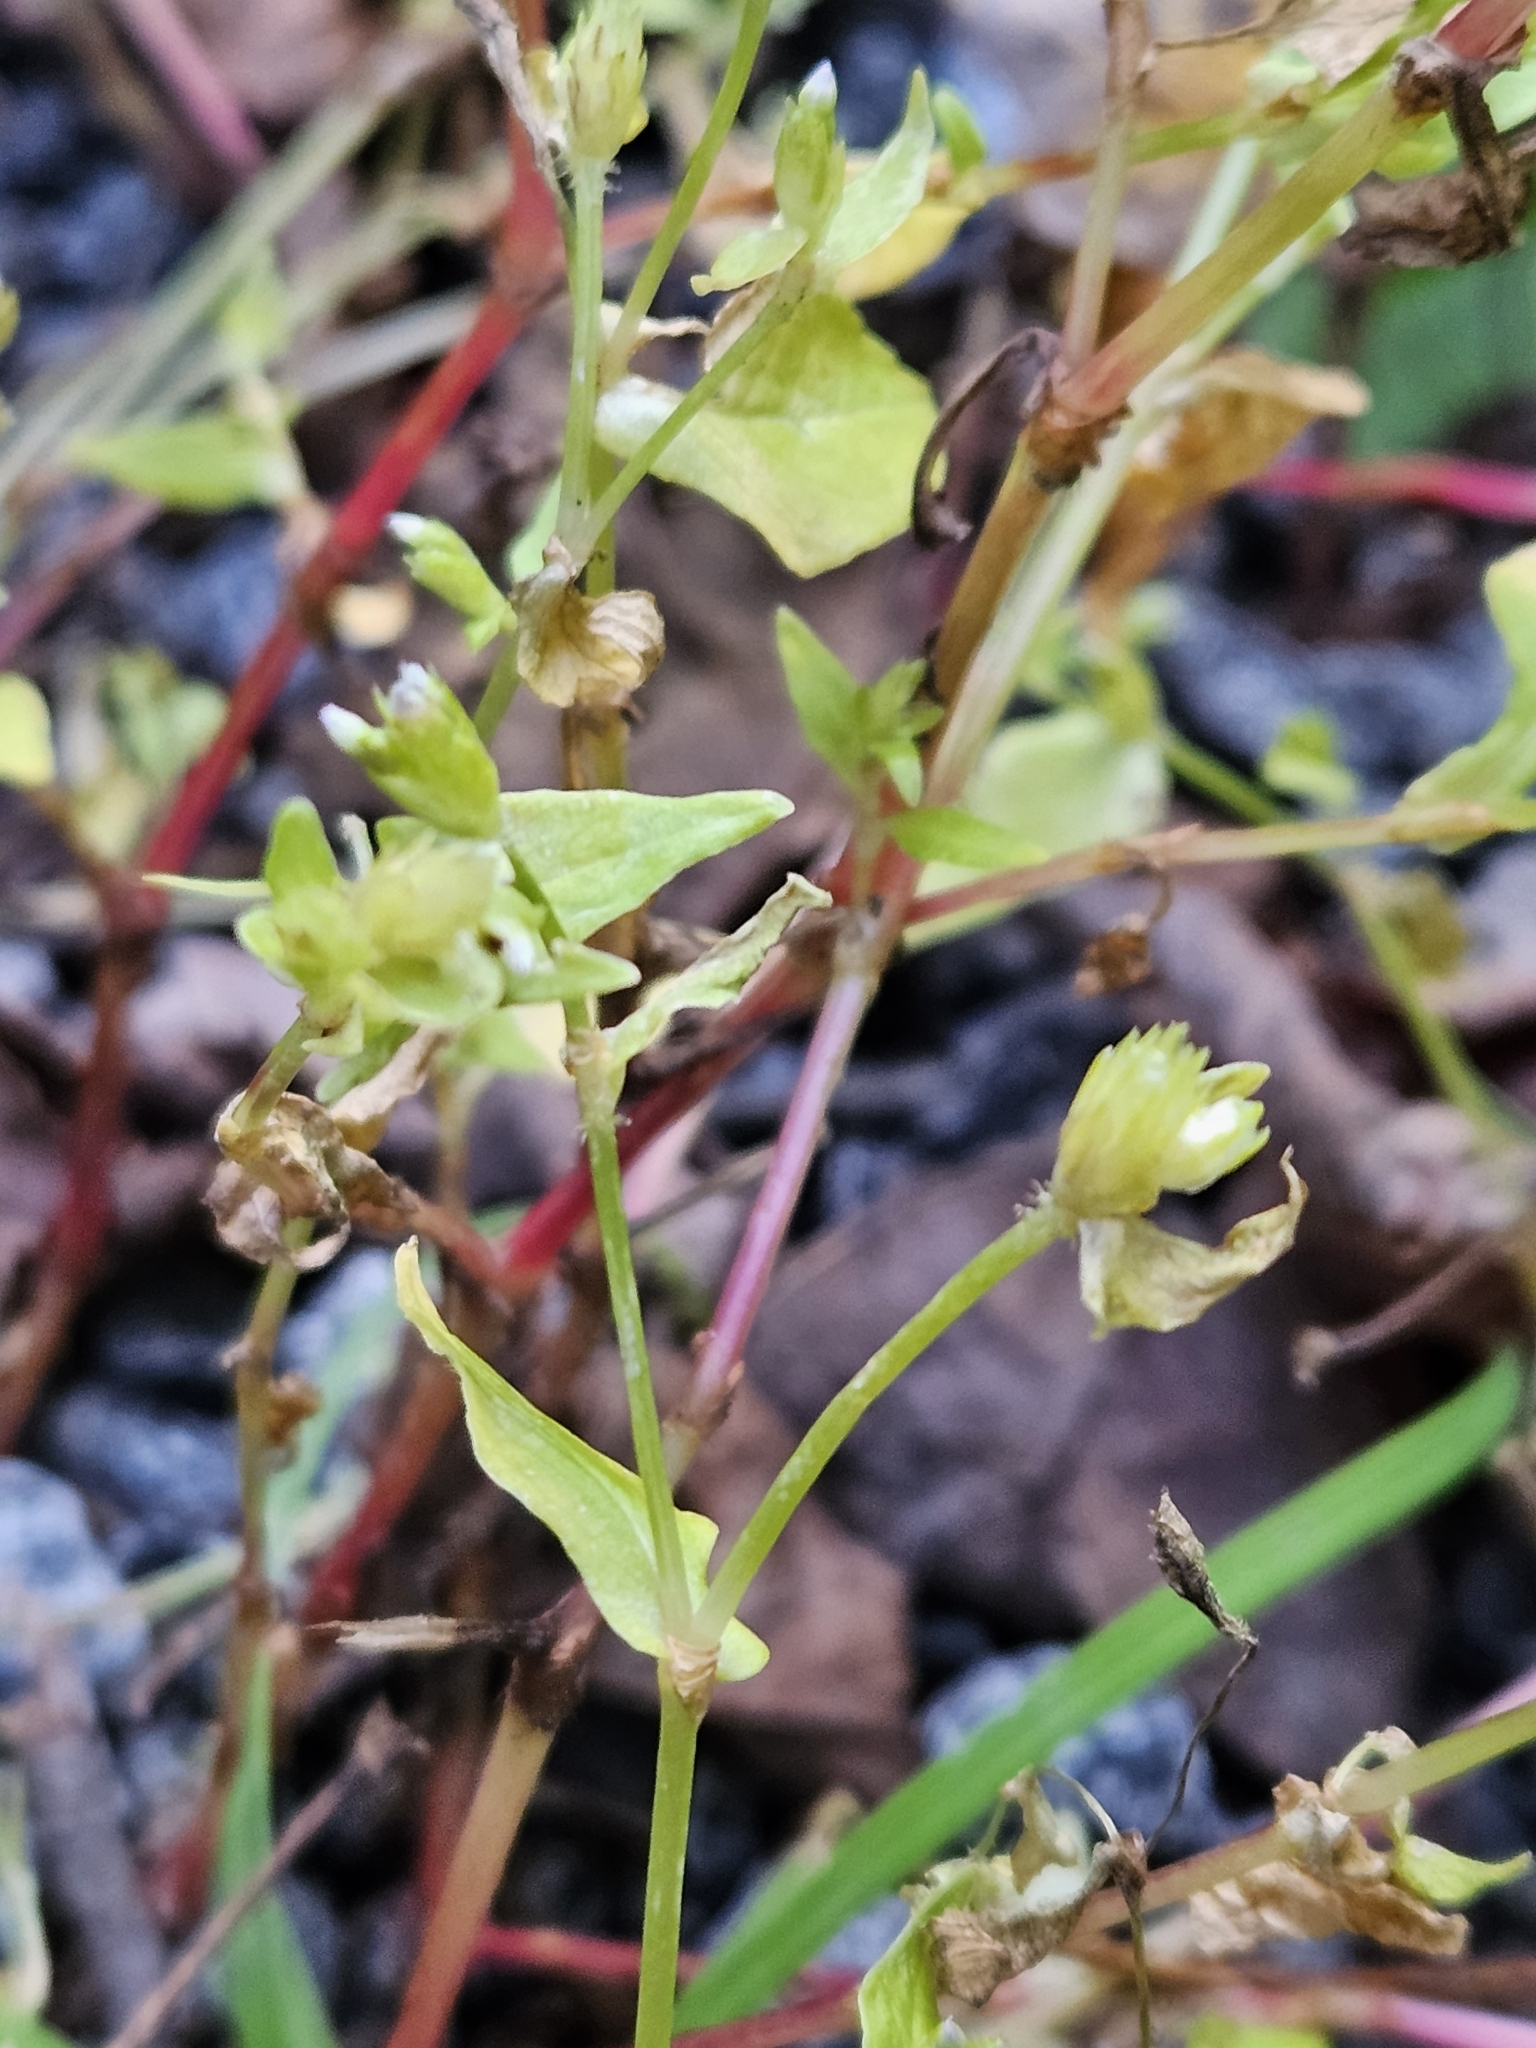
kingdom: Plantae
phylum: Tracheophyta
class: Magnoliopsida
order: Caryophyllales
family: Polygonaceae
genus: Persicaria
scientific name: Persicaria nepalensis
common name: Nepal persicaria
